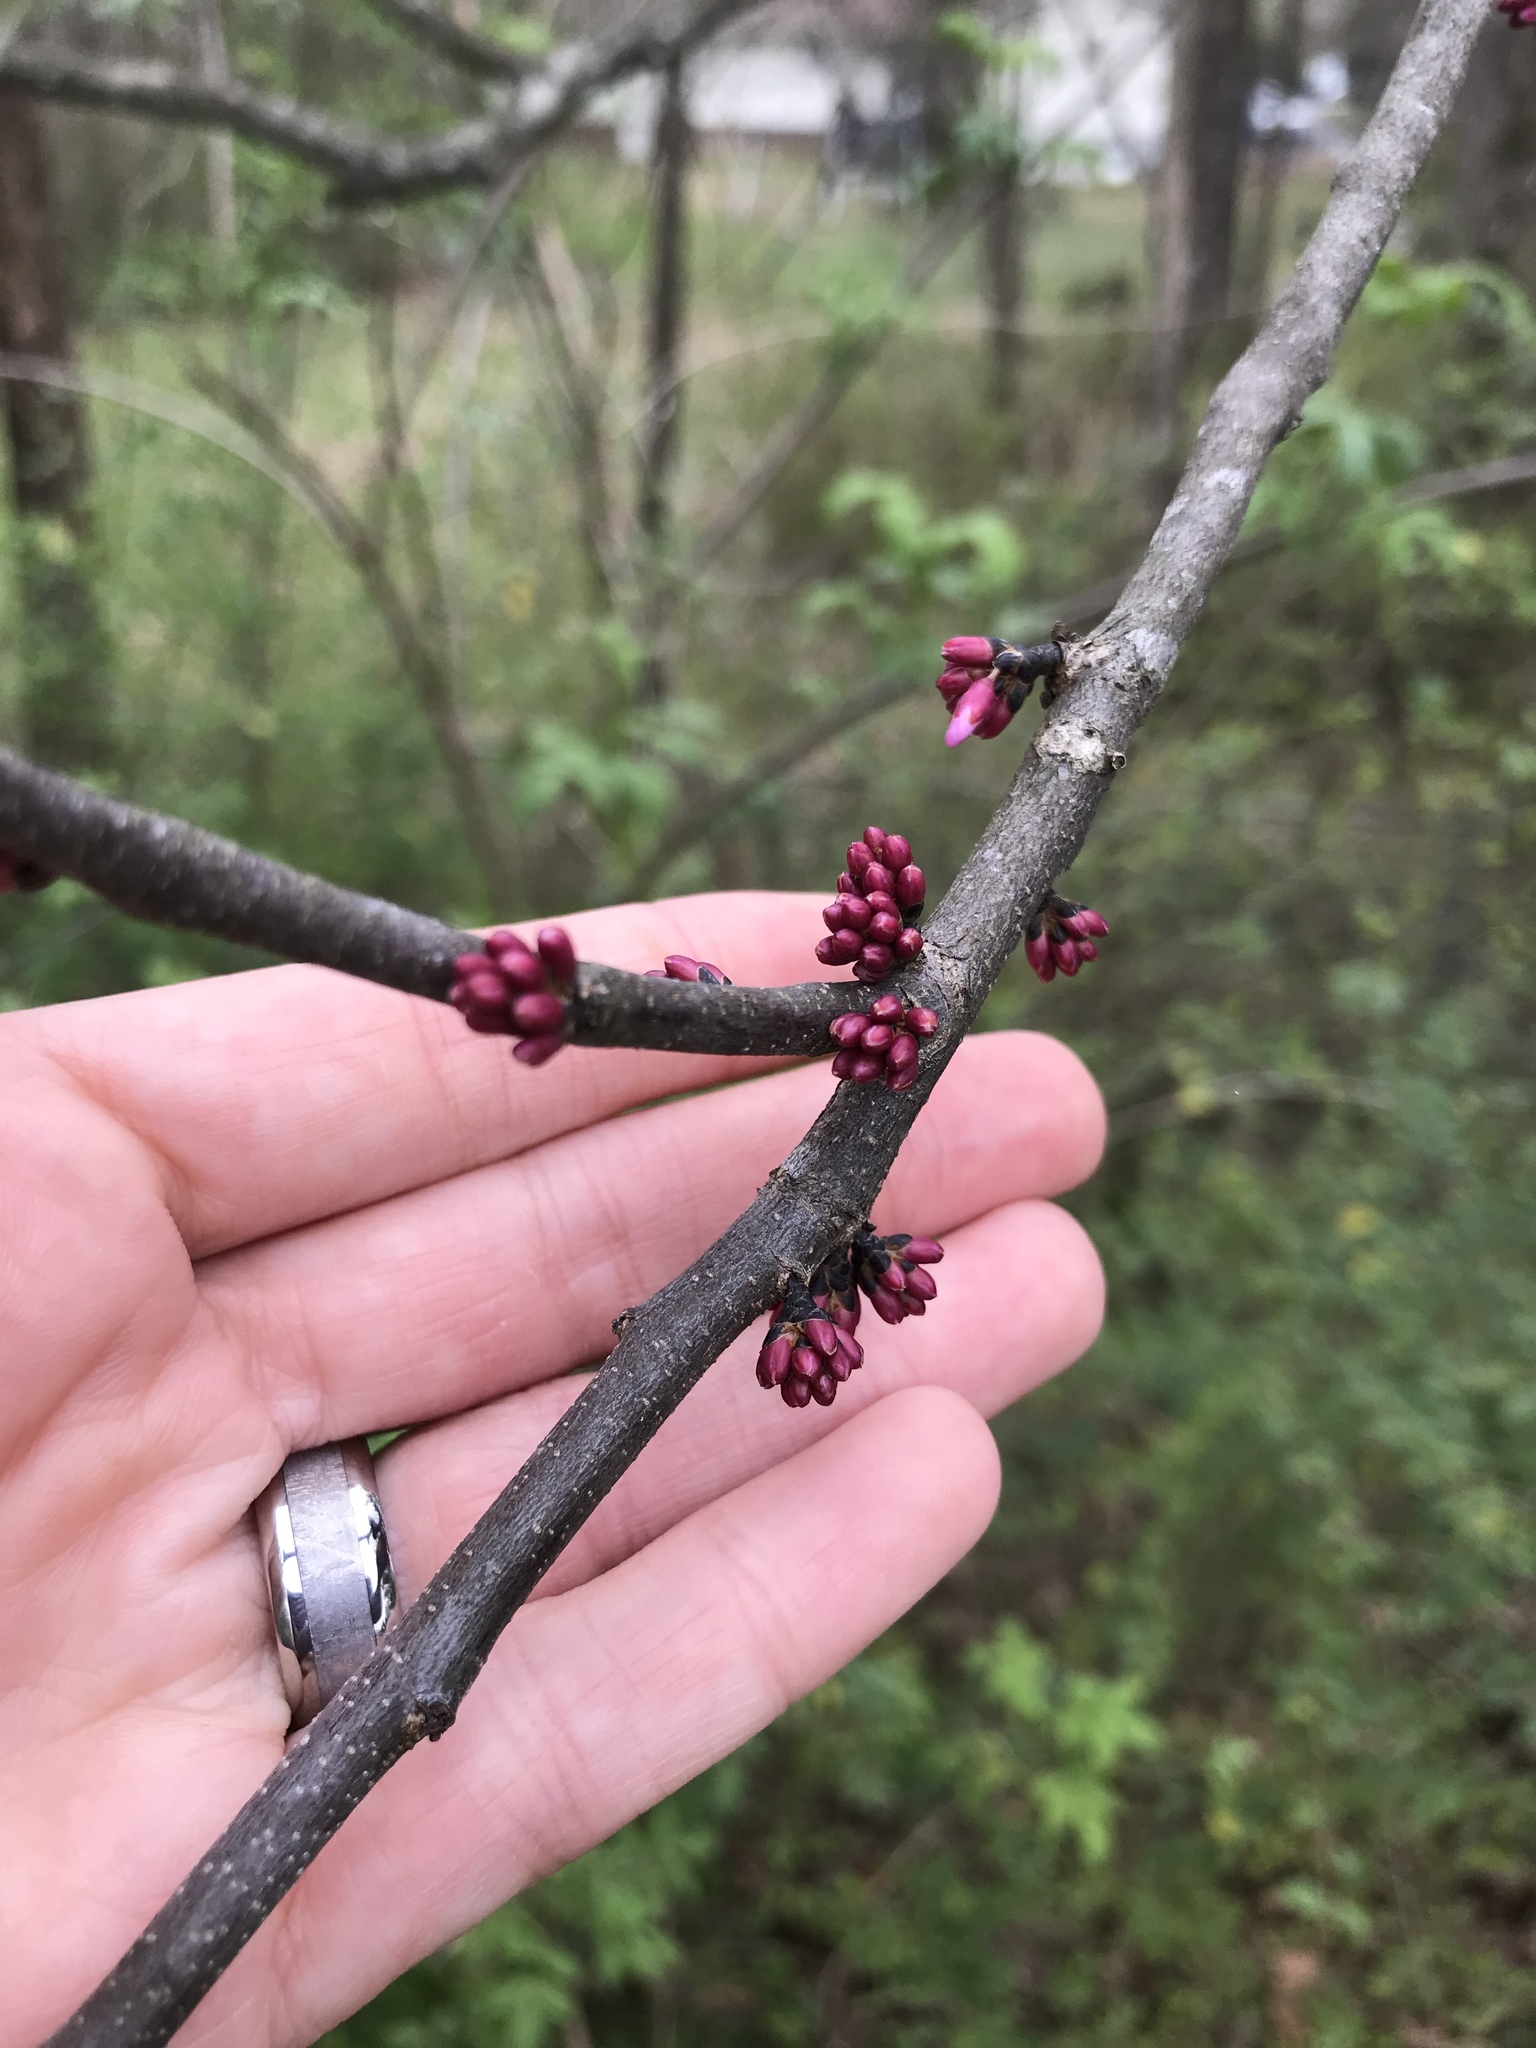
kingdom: Plantae
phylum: Tracheophyta
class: Magnoliopsida
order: Fabales
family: Fabaceae
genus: Cercis
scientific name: Cercis canadensis
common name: Eastern redbud
